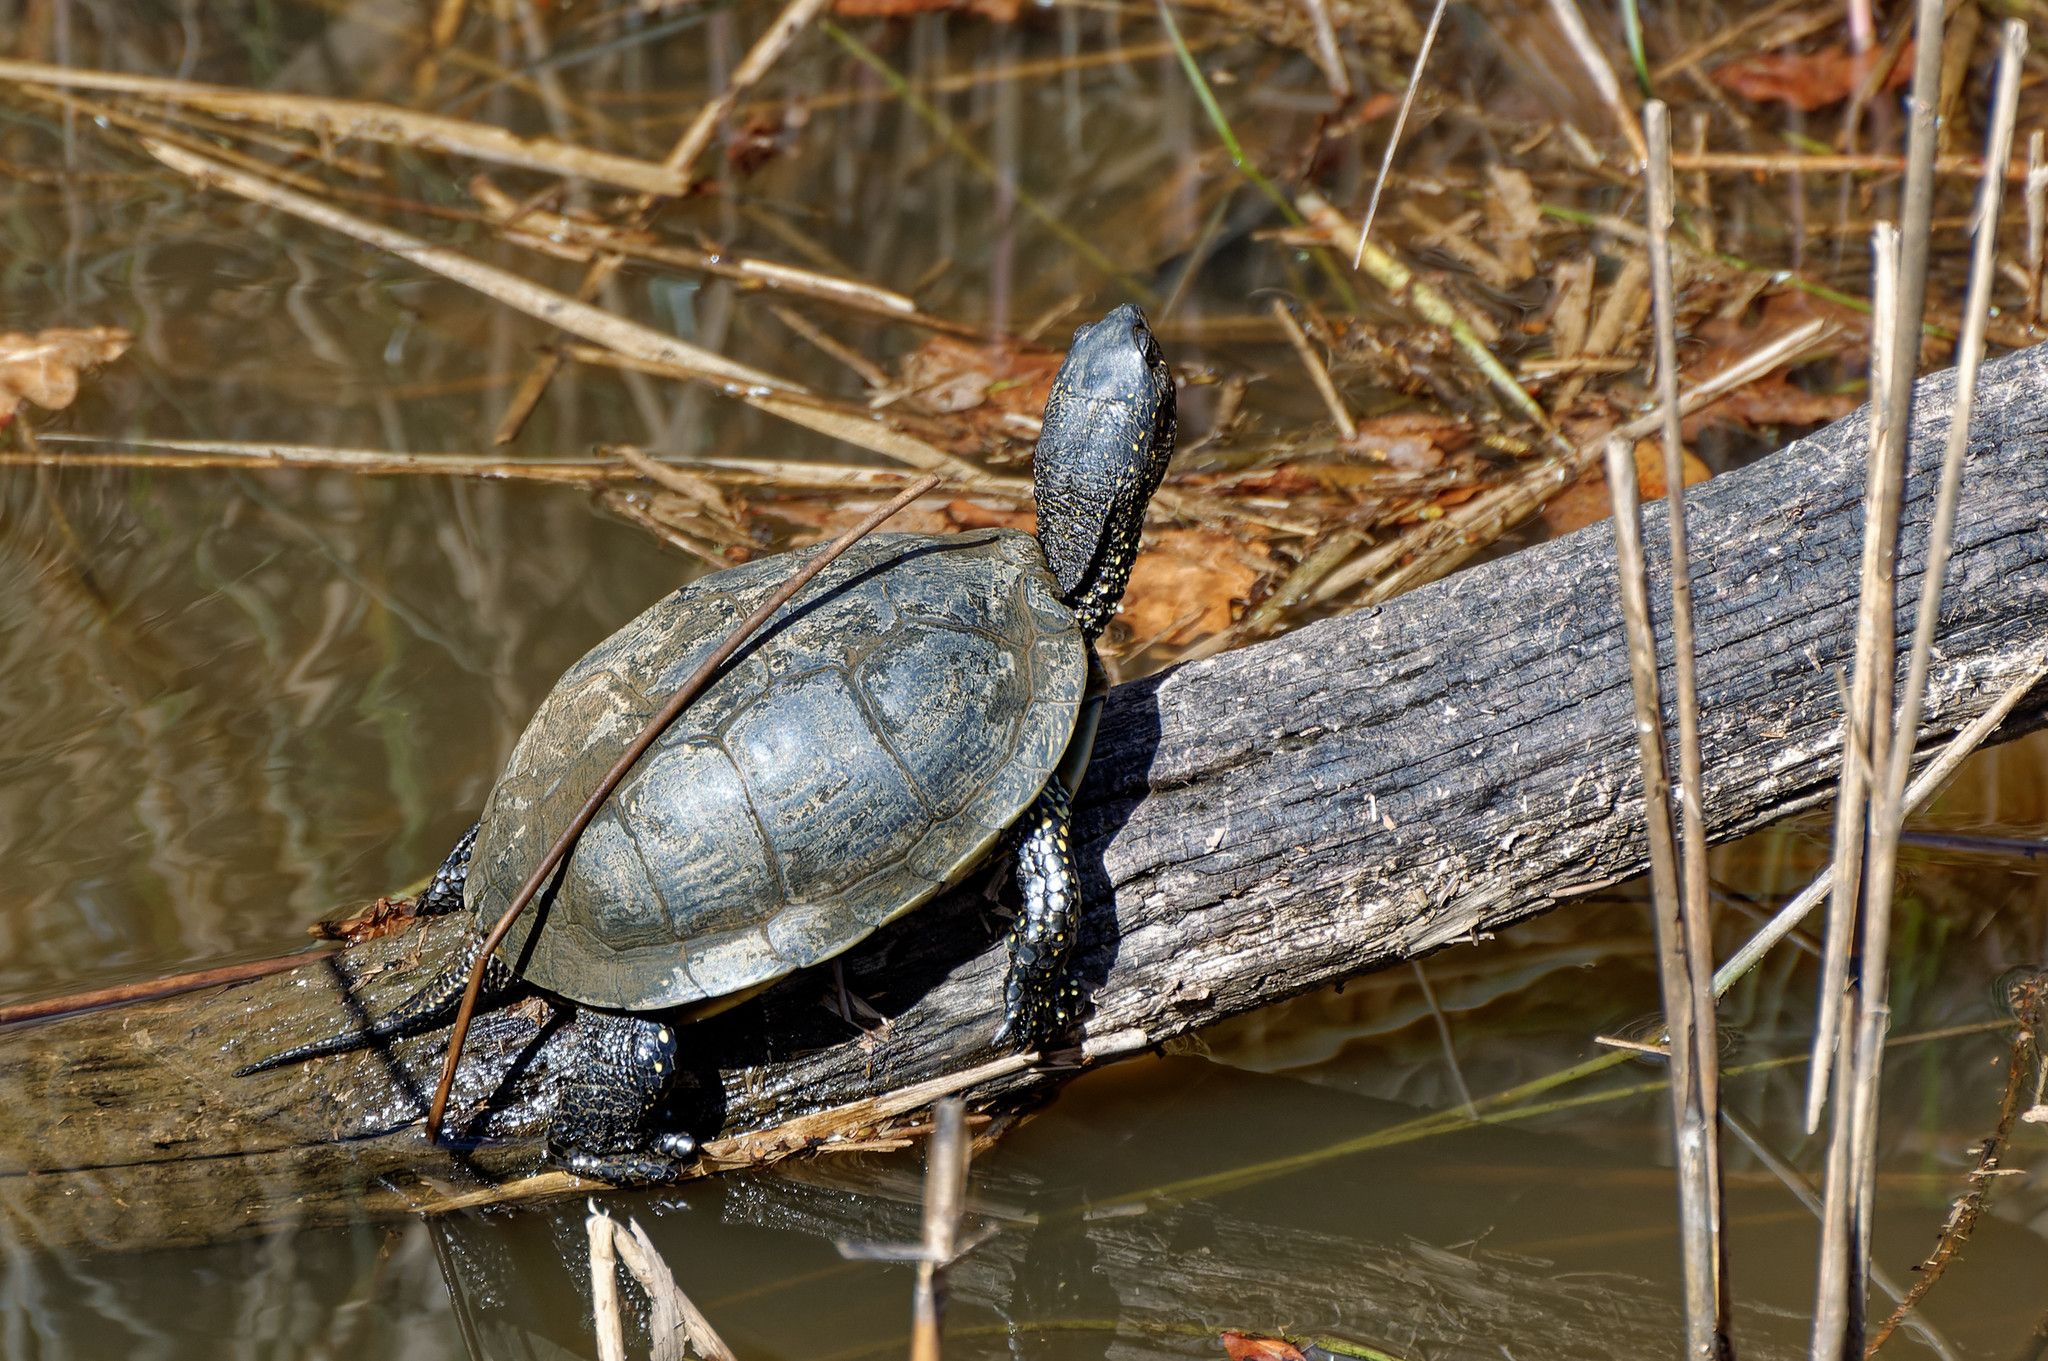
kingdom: Animalia
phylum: Chordata
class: Testudines
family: Emydidae
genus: Emys
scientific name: Emys orbicularis
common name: European pond turtle
